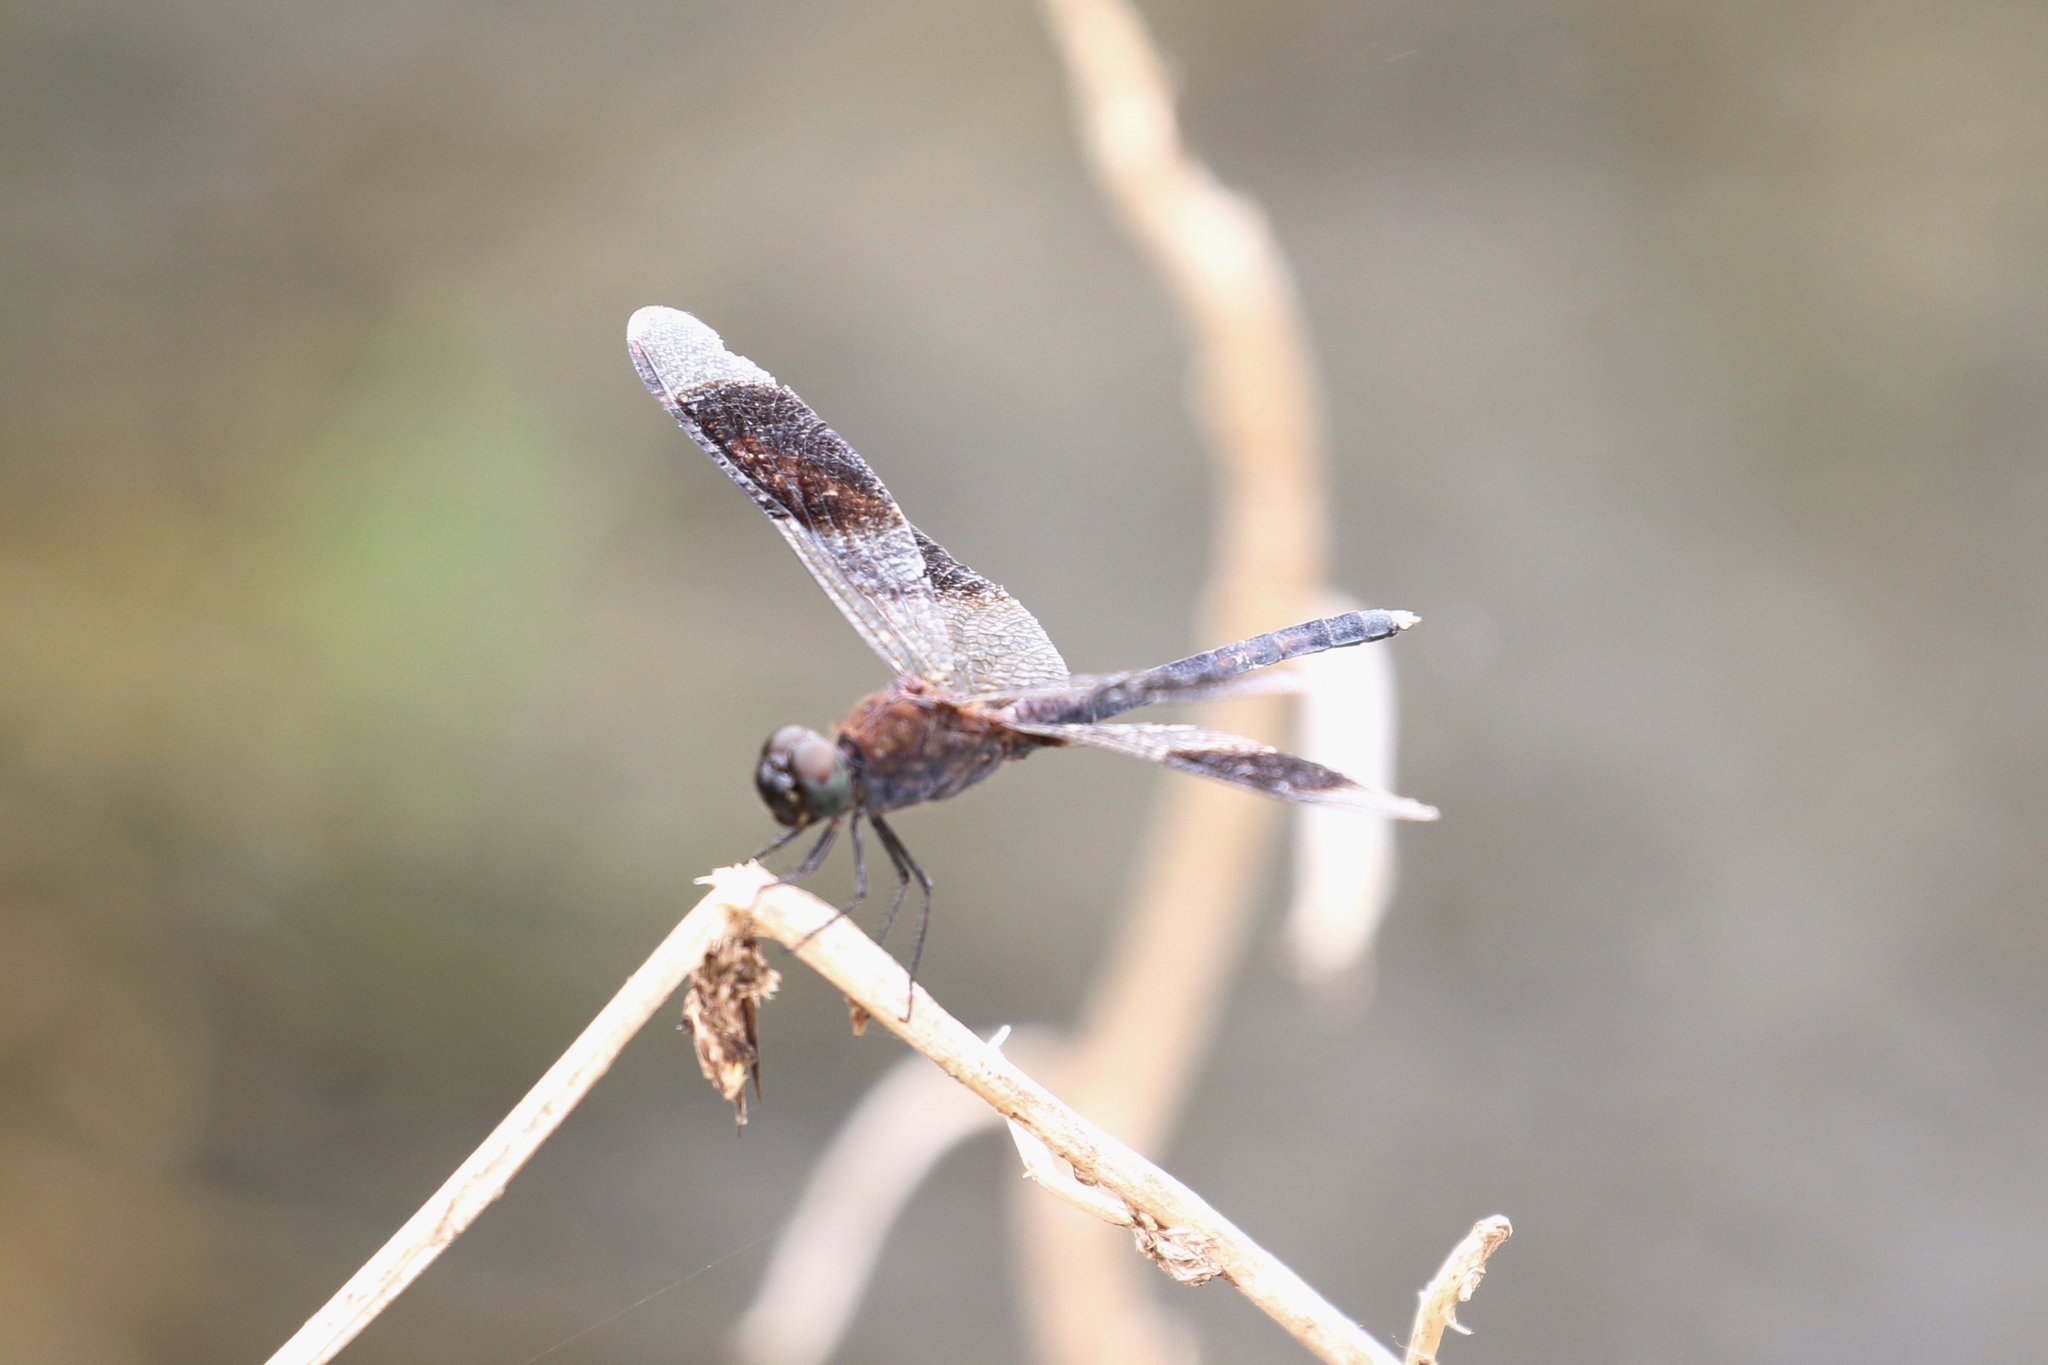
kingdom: Animalia
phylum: Arthropoda
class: Insecta
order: Odonata
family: Libellulidae
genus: Erythrodiplax
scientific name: Erythrodiplax umbrata
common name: Band-winged dragonlet
